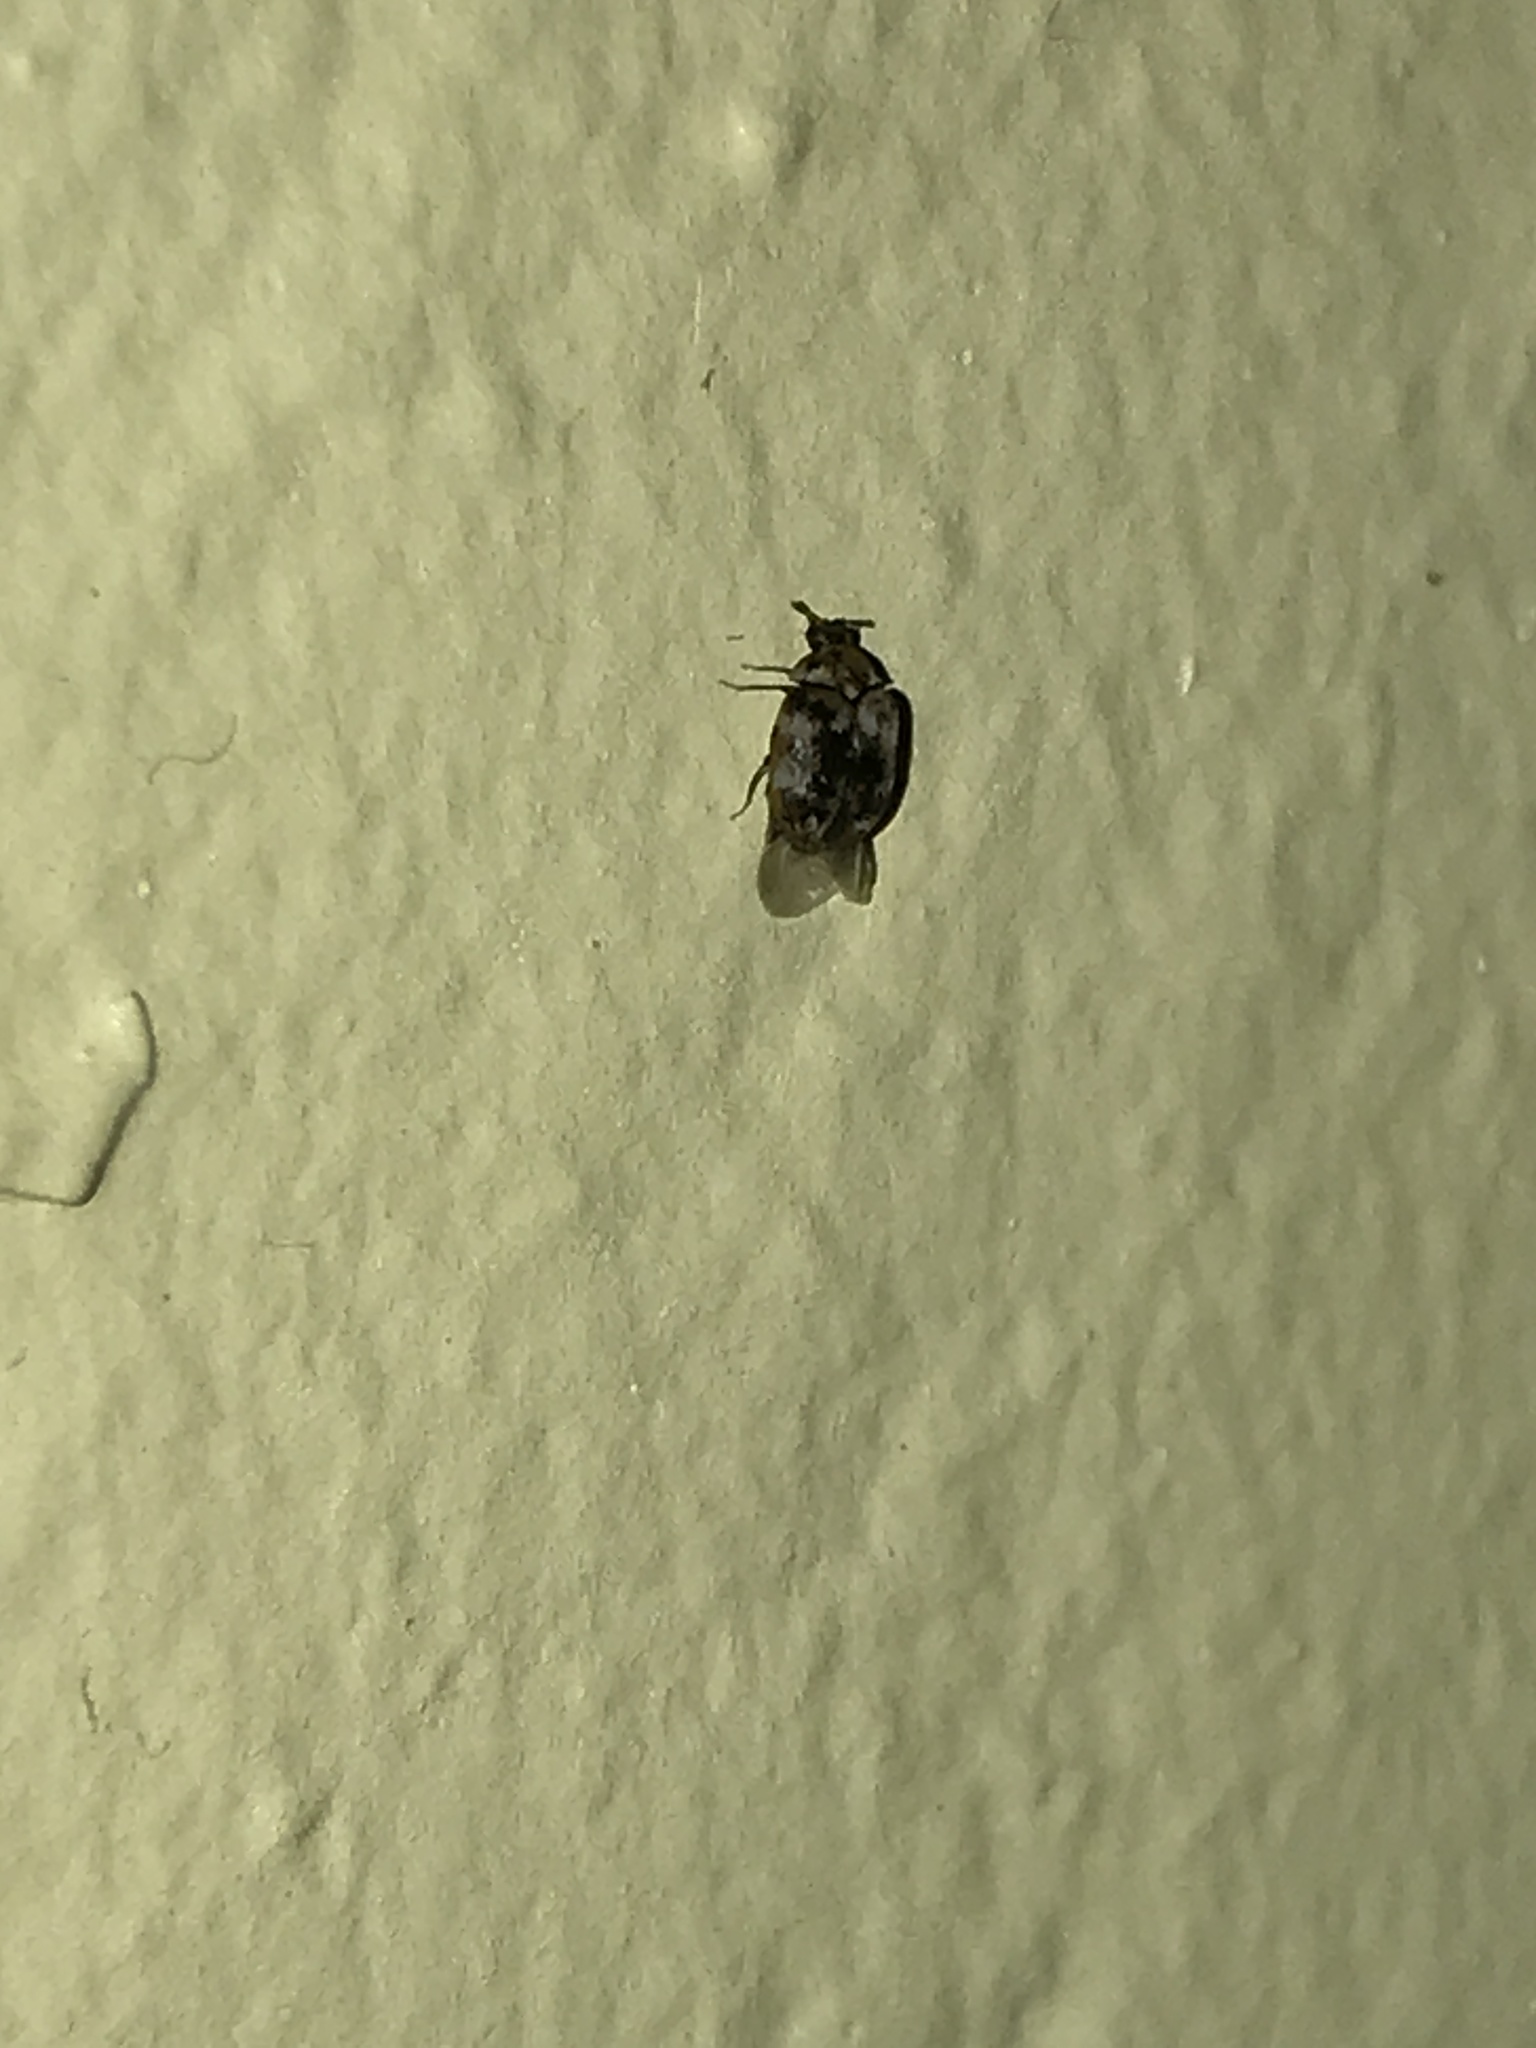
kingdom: Animalia
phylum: Arthropoda
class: Insecta
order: Coleoptera
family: Dermestidae
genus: Anthrenus
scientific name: Anthrenus verbasci
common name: Varied carpet beetle
